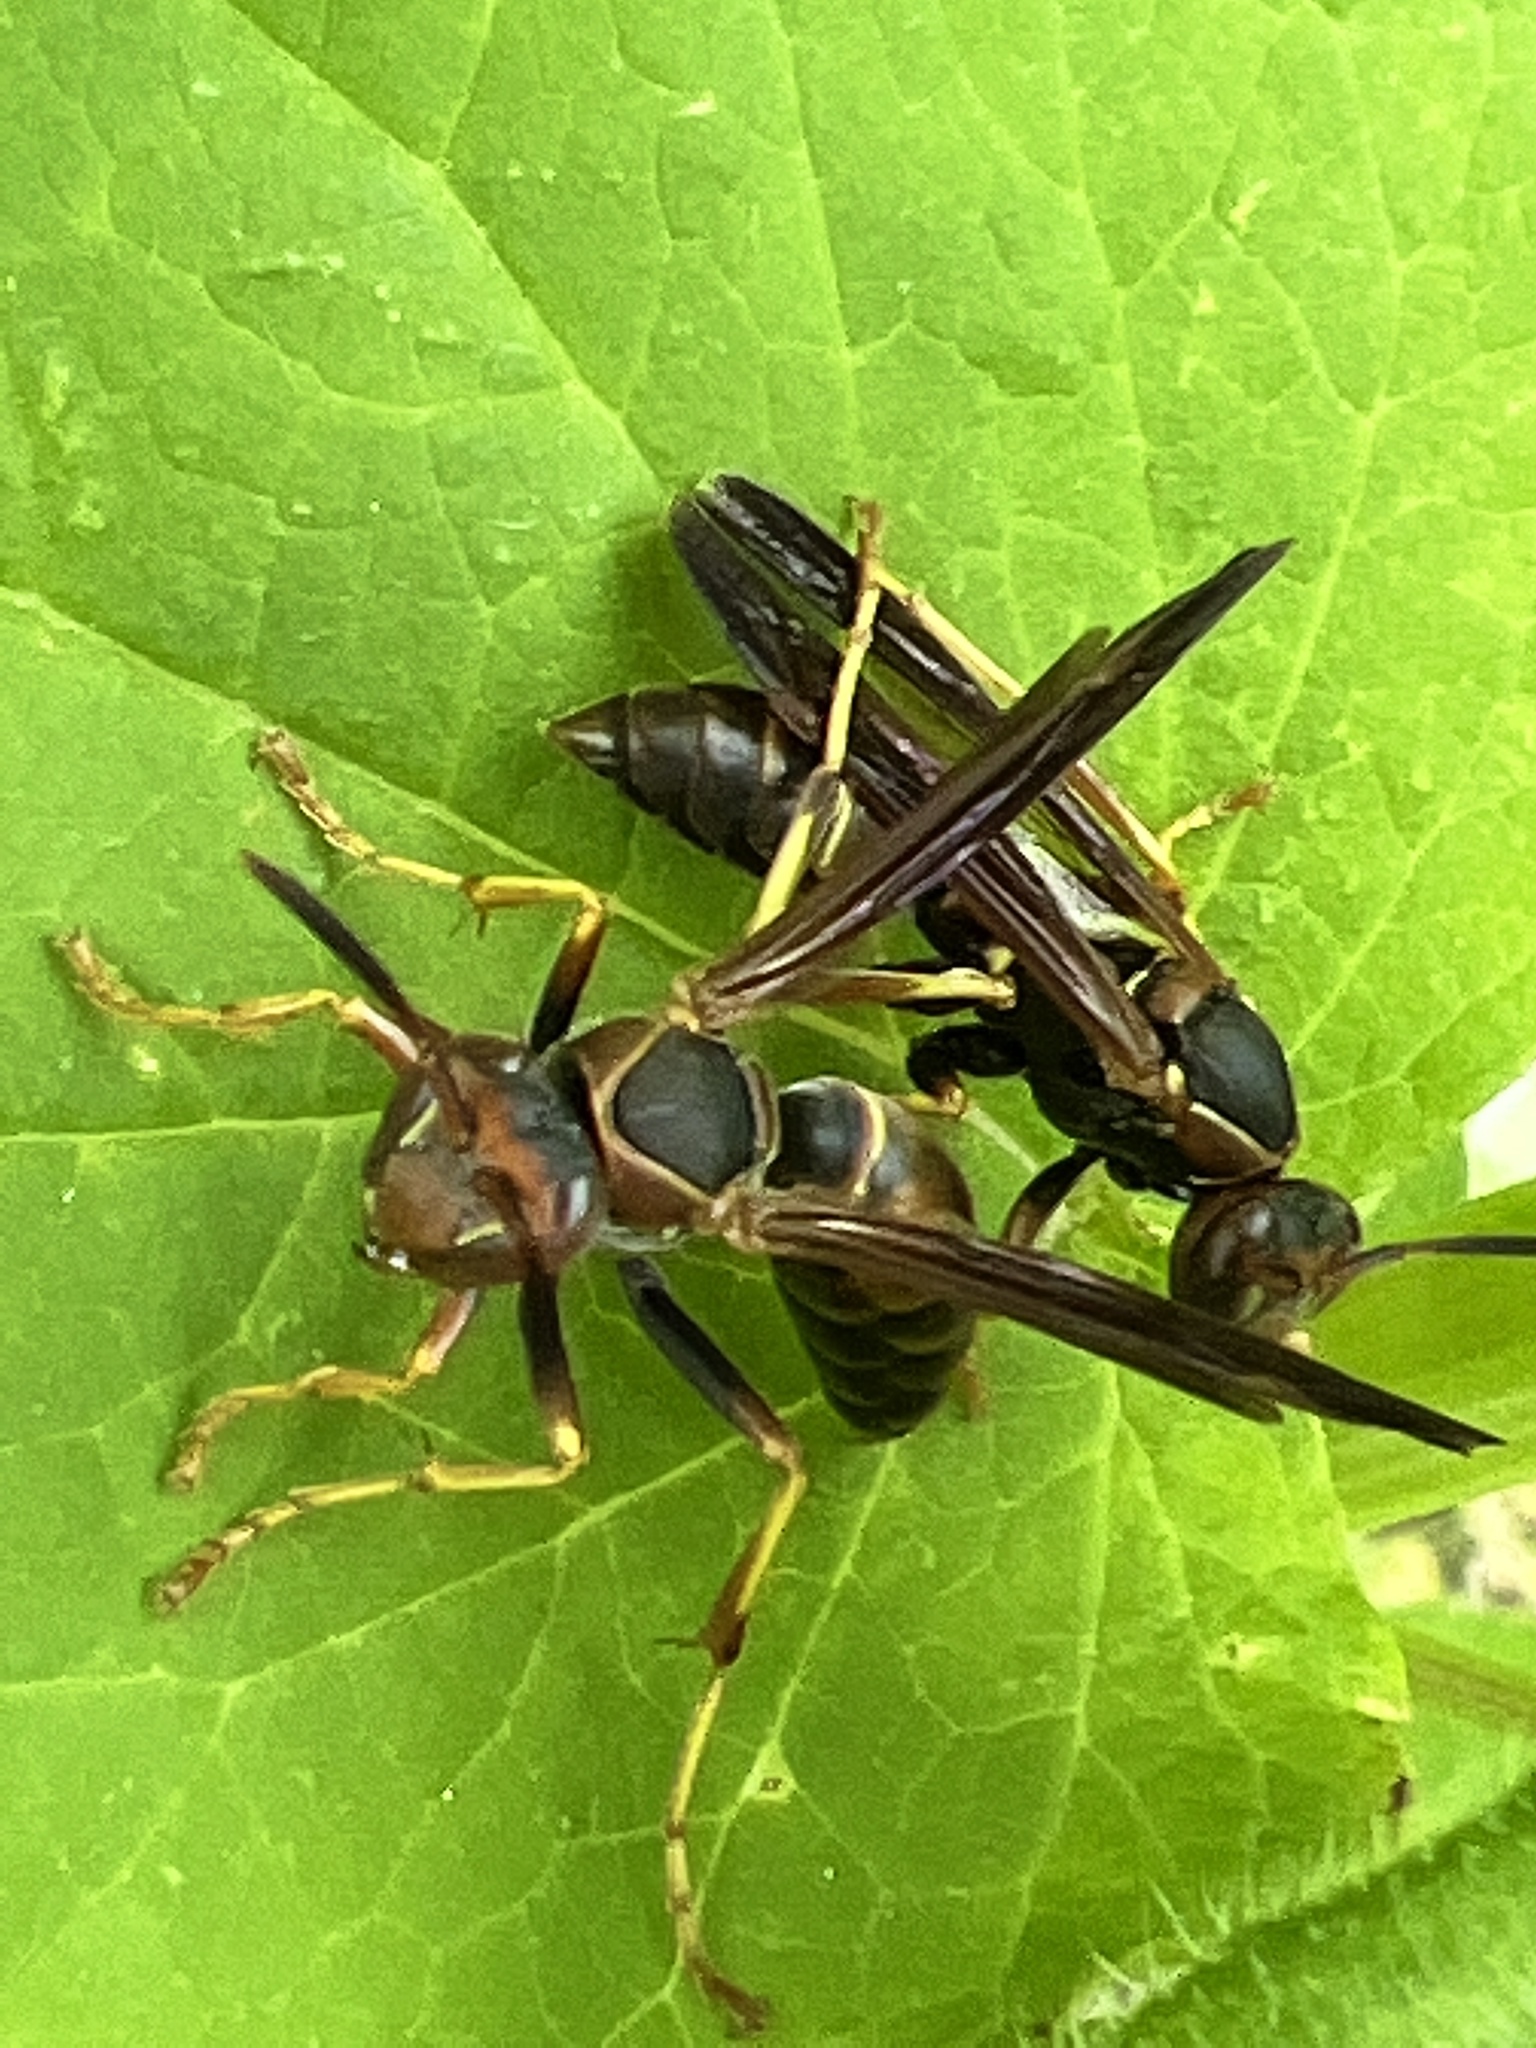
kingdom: Animalia
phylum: Arthropoda
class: Insecta
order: Hymenoptera
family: Eumenidae
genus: Polistes
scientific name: Polistes fuscatus
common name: Dark paper wasp
